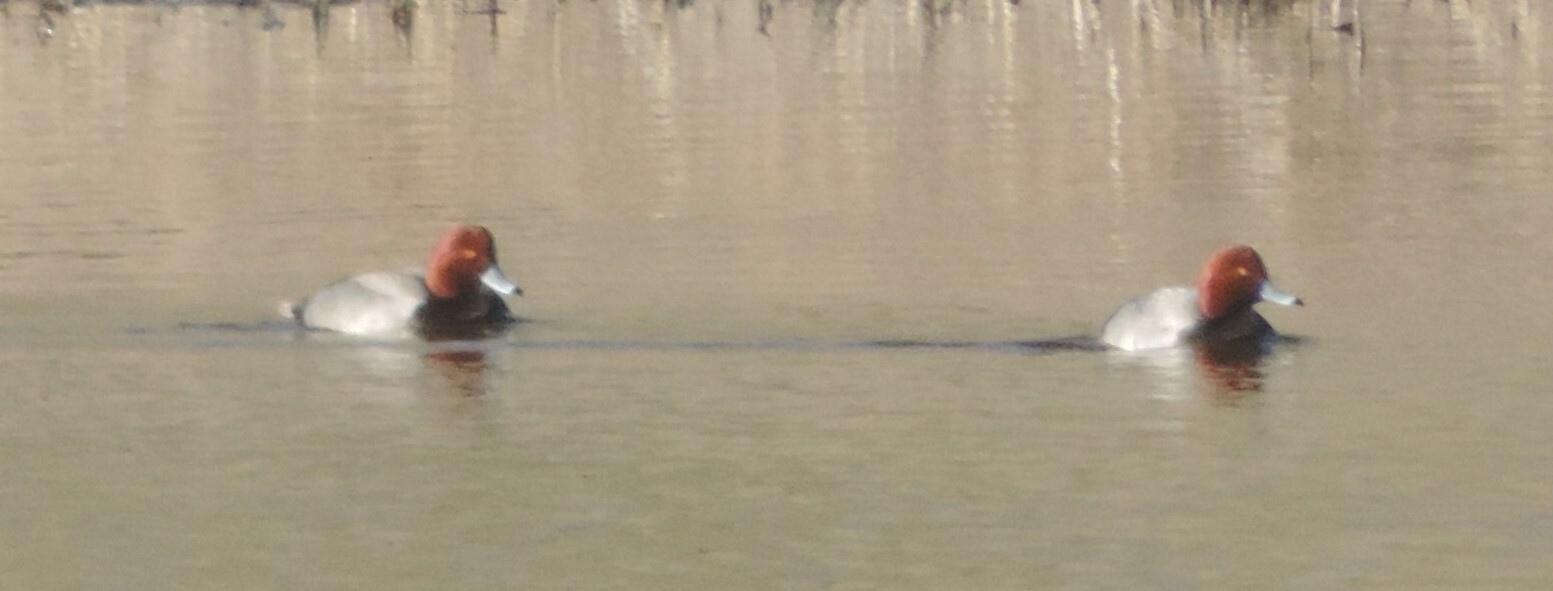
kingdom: Animalia
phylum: Chordata
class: Aves
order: Anseriformes
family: Anatidae
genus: Aythya
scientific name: Aythya americana
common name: Redhead
